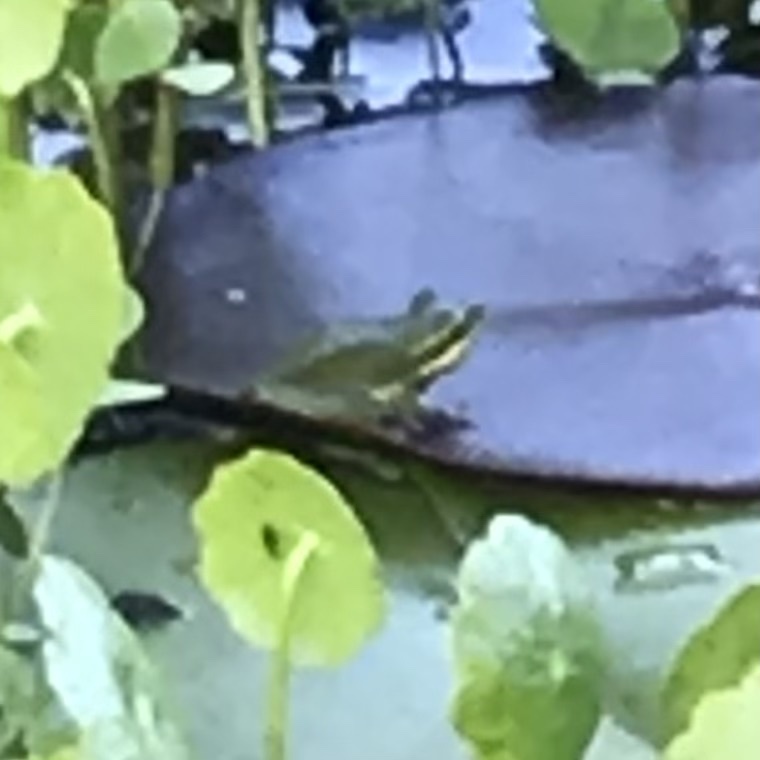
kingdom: Animalia
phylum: Chordata
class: Amphibia
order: Anura
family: Pelodryadidae
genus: Litoria
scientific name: Litoria fallax
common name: Eastern dwarf treefrog
